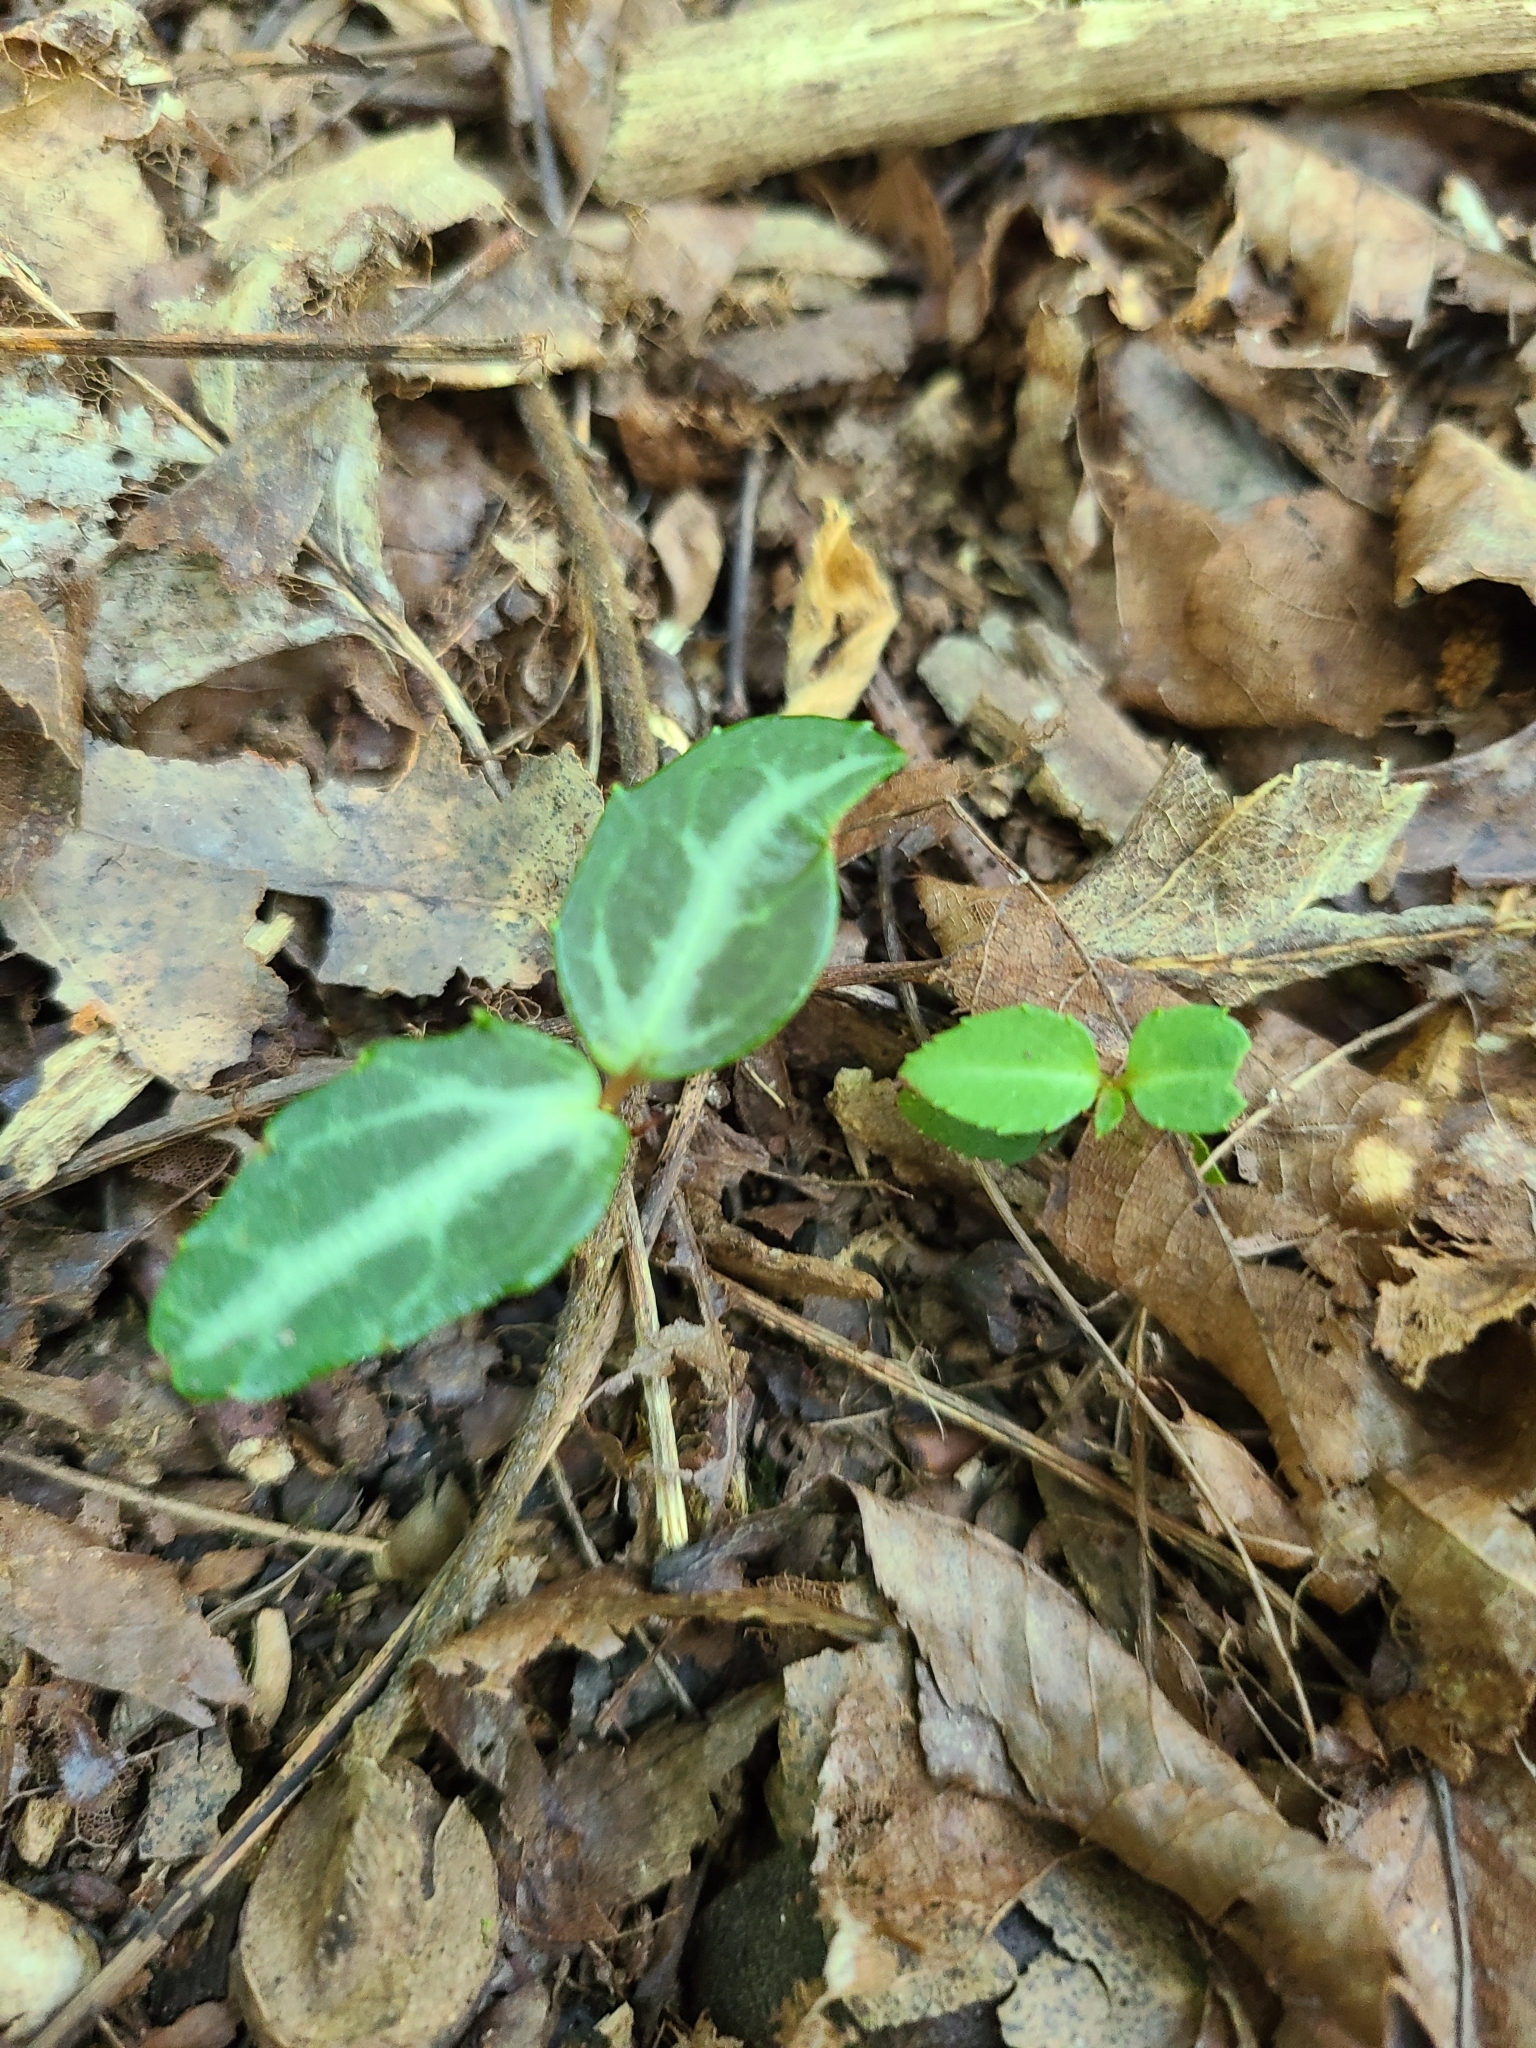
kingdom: Plantae
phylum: Tracheophyta
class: Magnoliopsida
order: Ericales
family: Ericaceae
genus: Chimaphila
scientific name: Chimaphila maculata
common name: Spotted pipsissewa
